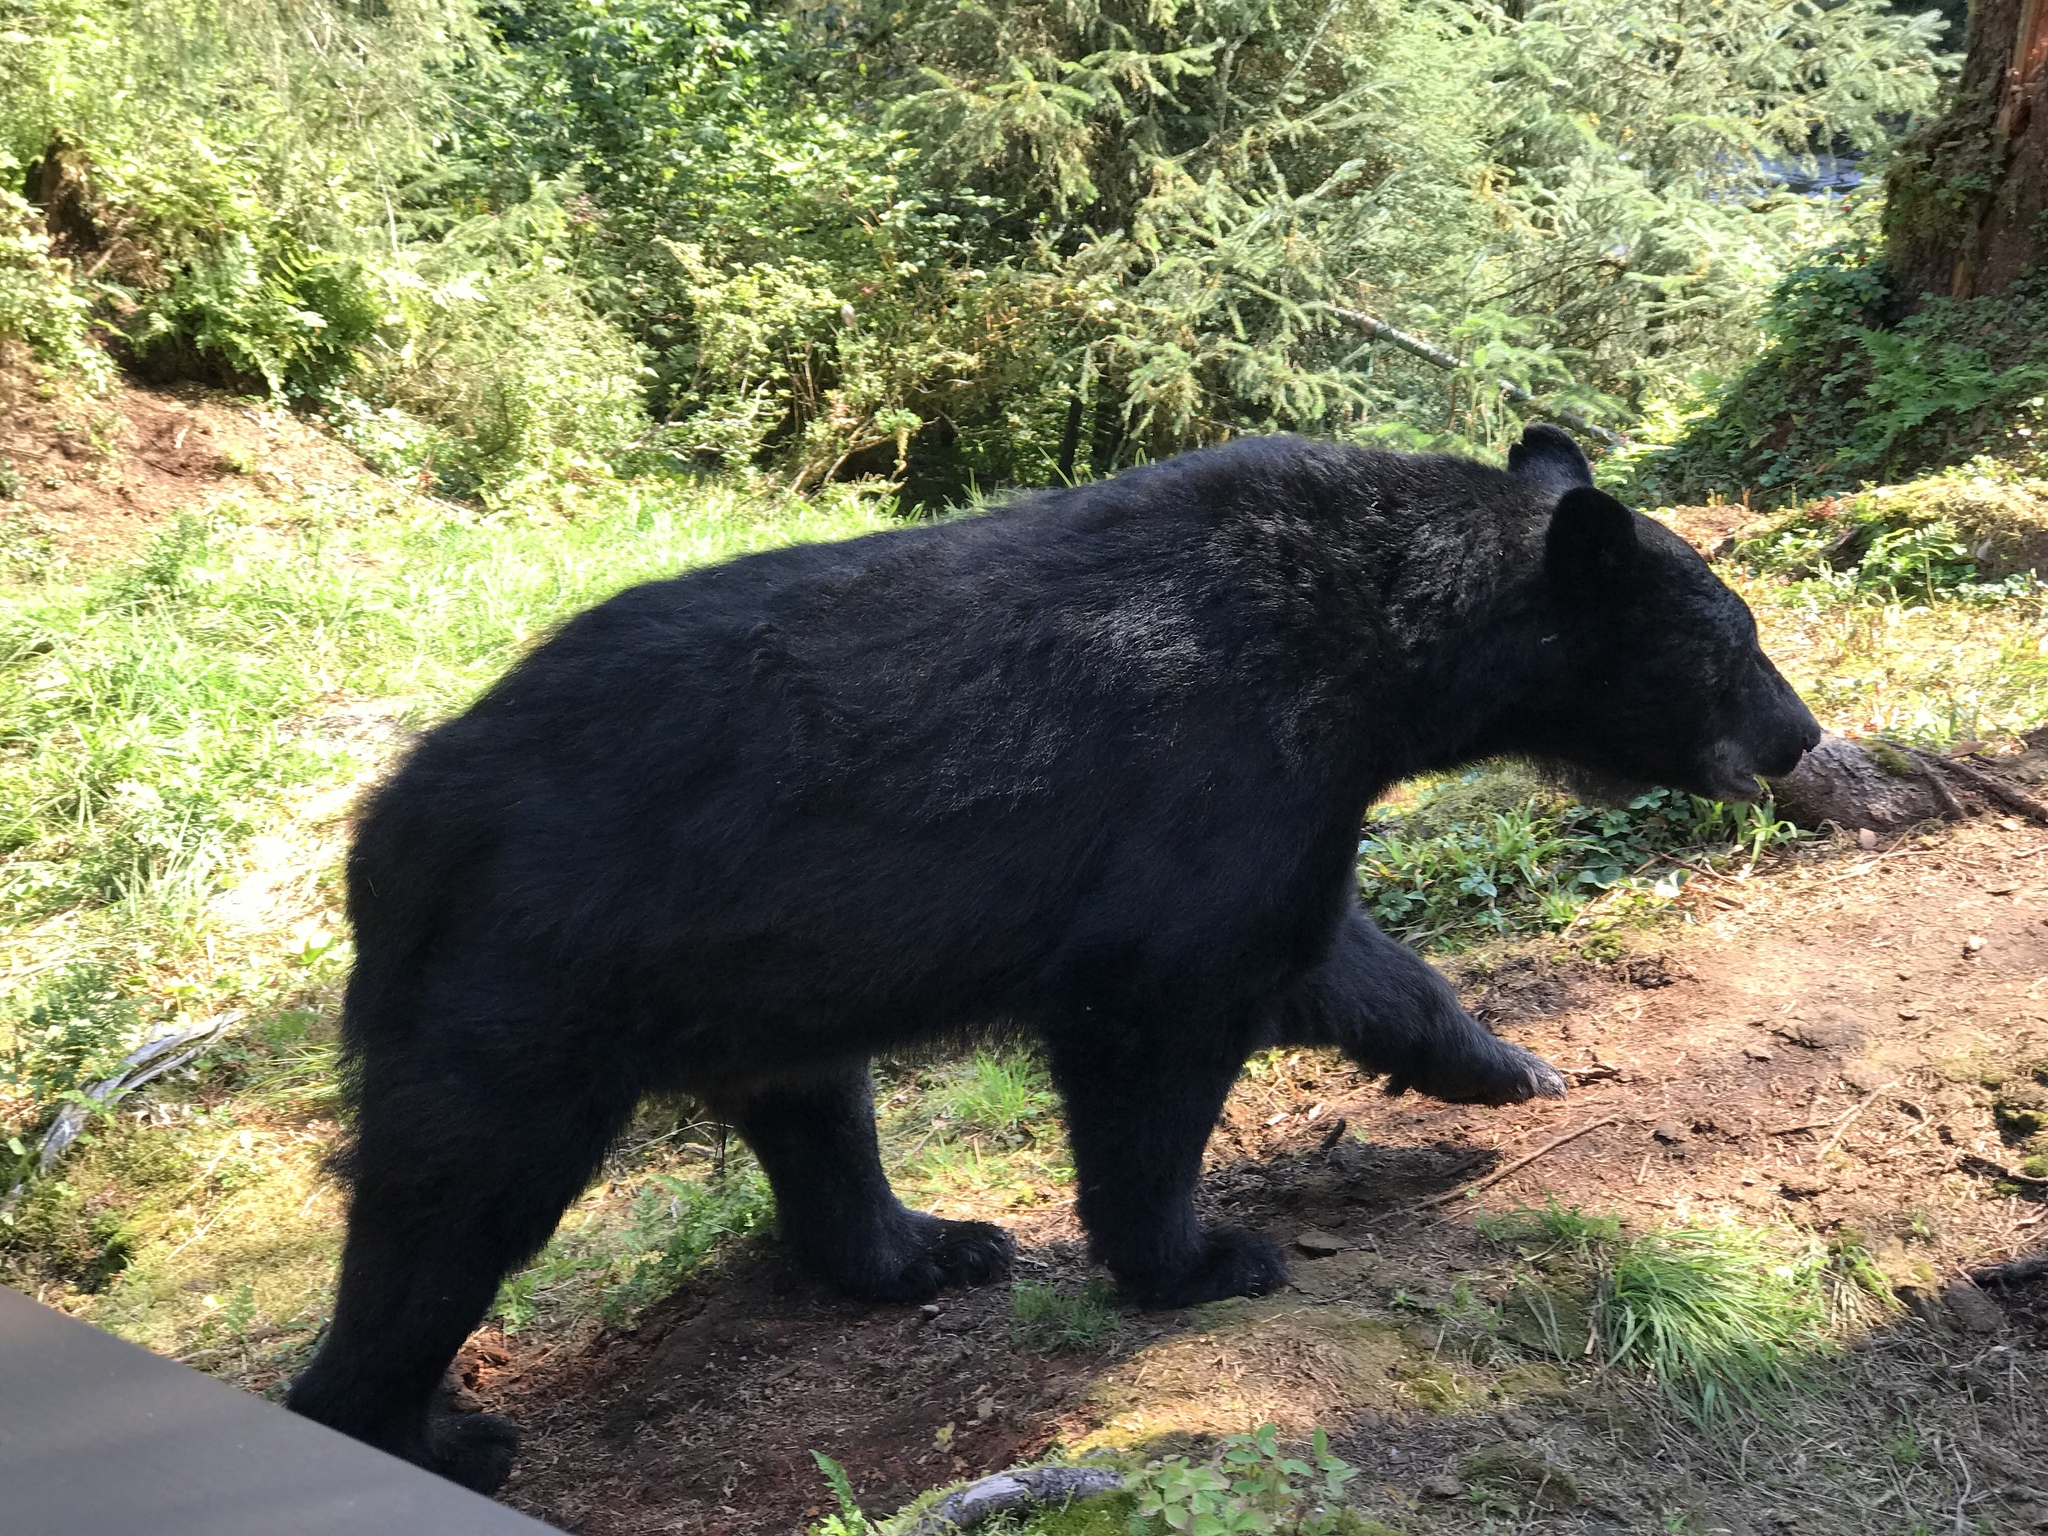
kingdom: Animalia
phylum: Chordata
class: Mammalia
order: Carnivora
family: Ursidae
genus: Ursus
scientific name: Ursus americanus
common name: American black bear
